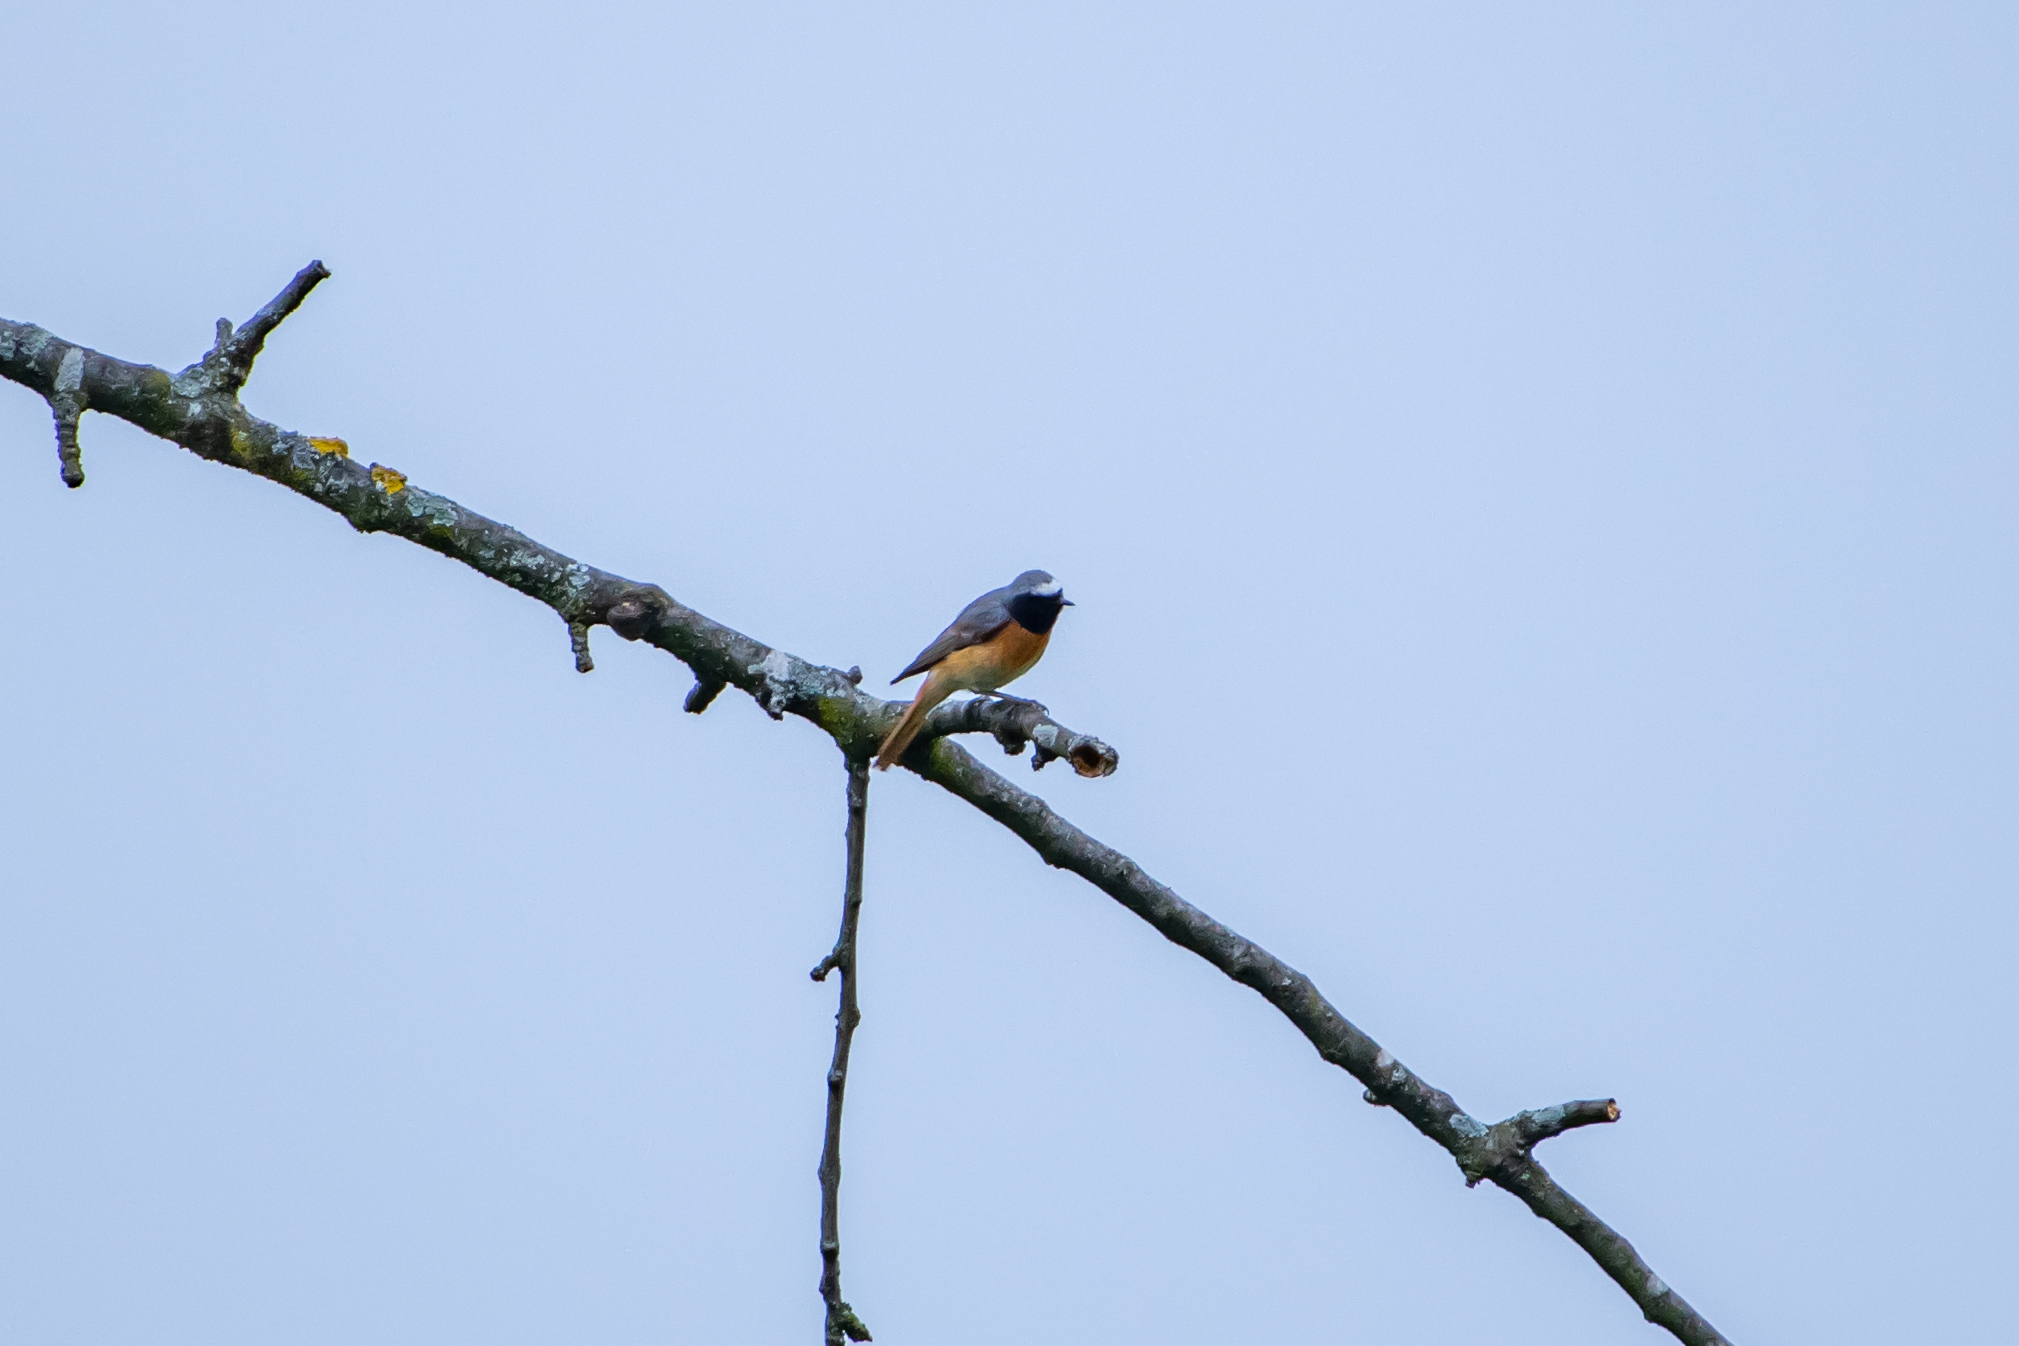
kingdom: Animalia
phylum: Chordata
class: Aves
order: Passeriformes
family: Muscicapidae
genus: Phoenicurus
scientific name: Phoenicurus phoenicurus
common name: Common redstart
